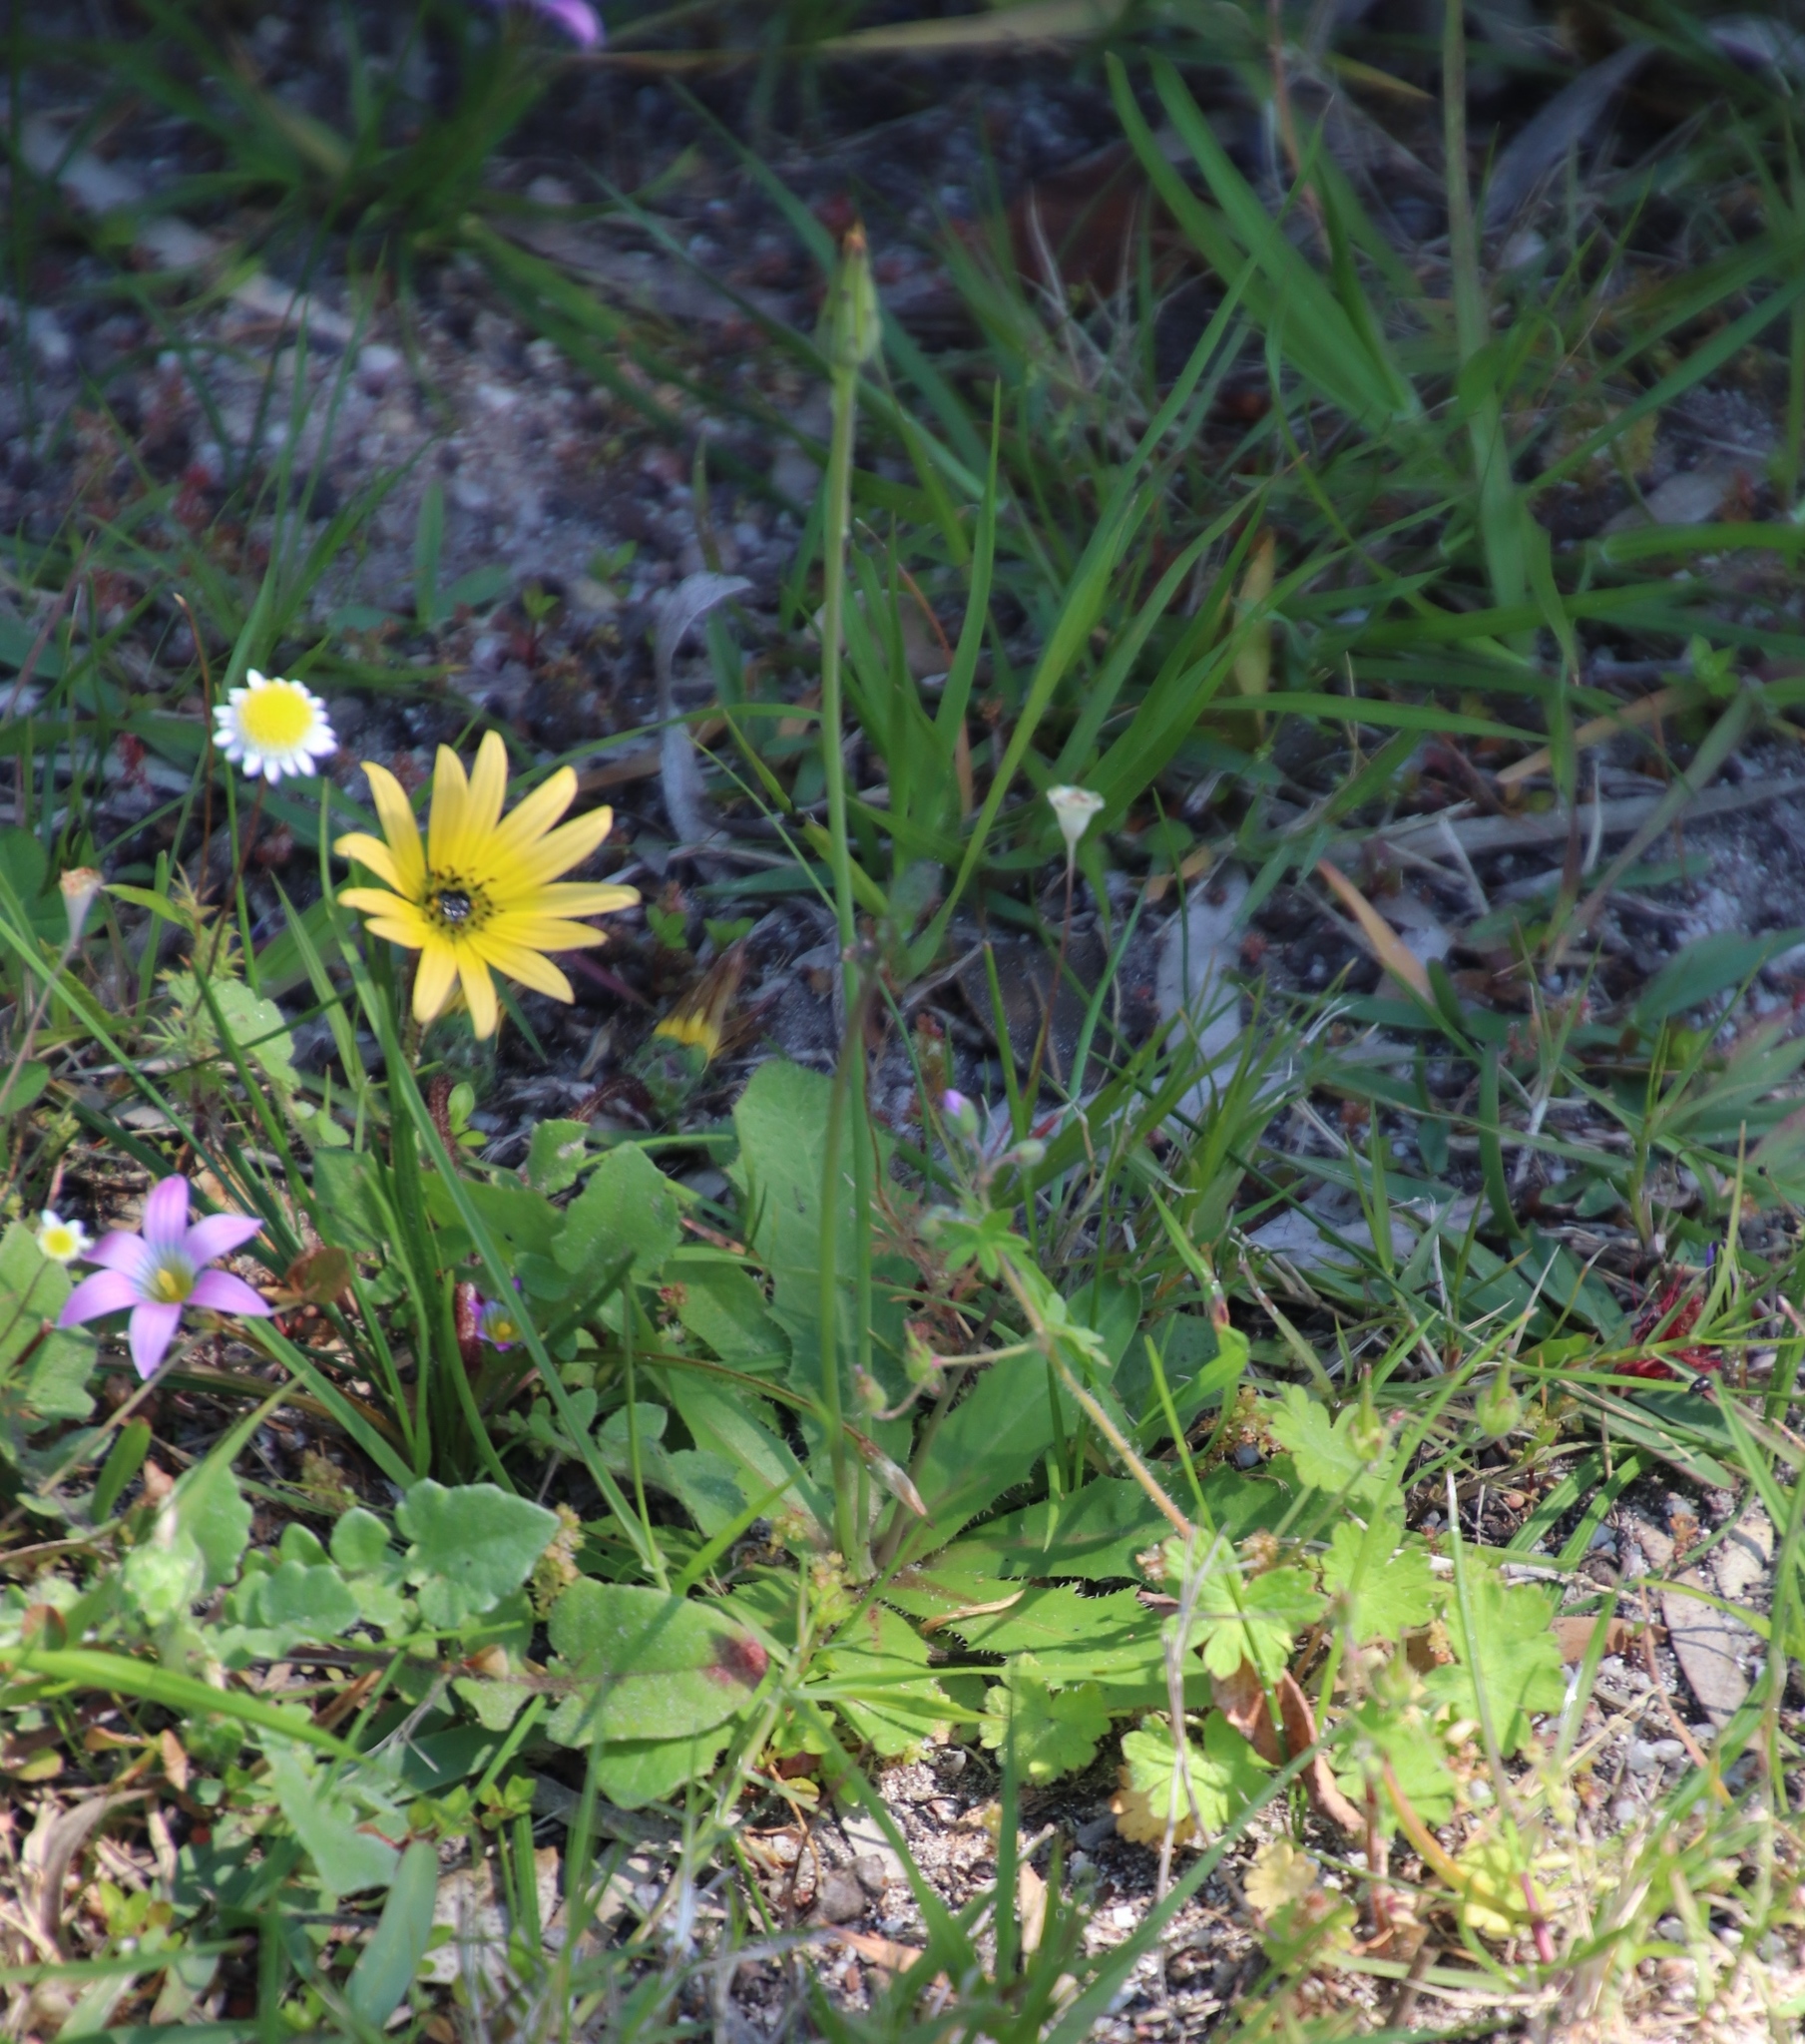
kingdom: Plantae
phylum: Tracheophyta
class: Magnoliopsida
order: Asterales
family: Asteraceae
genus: Hypochaeris
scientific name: Hypochaeris glabra
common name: Smooth catsear
